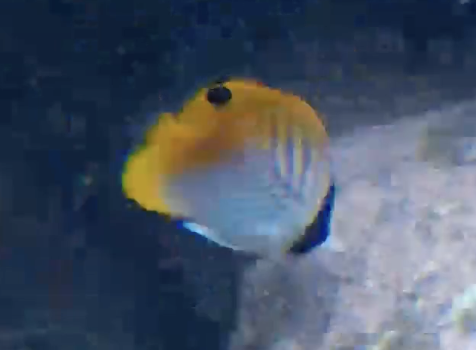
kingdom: Animalia
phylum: Chordata
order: Perciformes
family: Chaetodontidae
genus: Chaetodon
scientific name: Chaetodon auriga
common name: Threadfin butterflyfish
